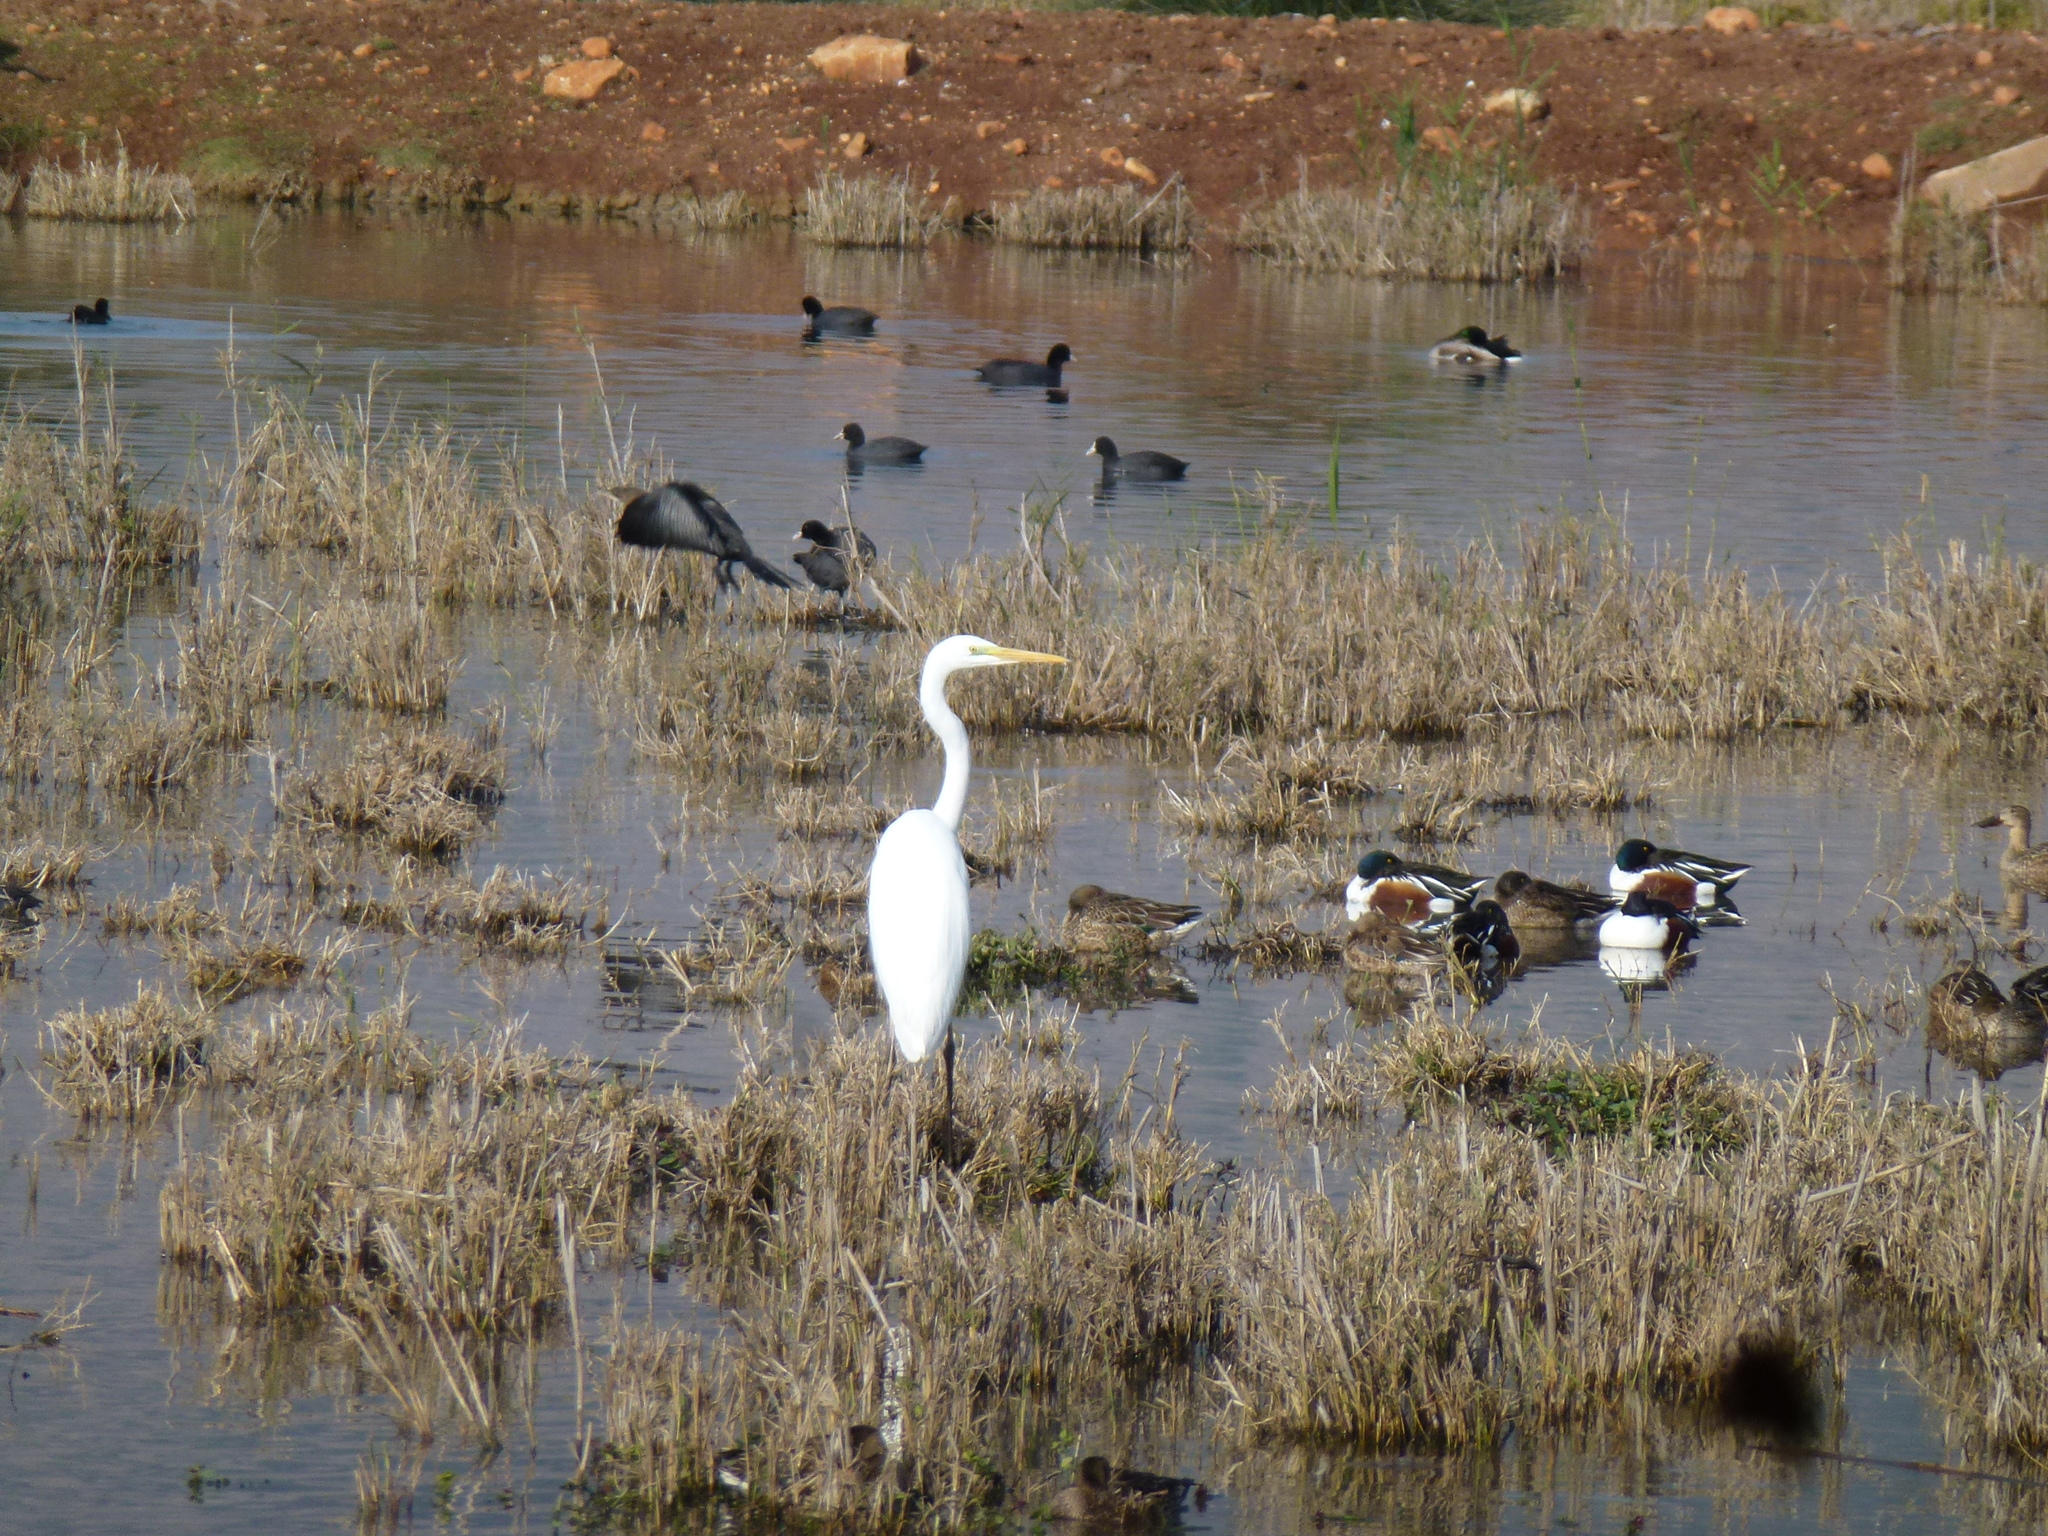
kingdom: Animalia
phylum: Chordata
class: Aves
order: Pelecaniformes
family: Ardeidae
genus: Ardea
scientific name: Ardea alba
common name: Great egret
